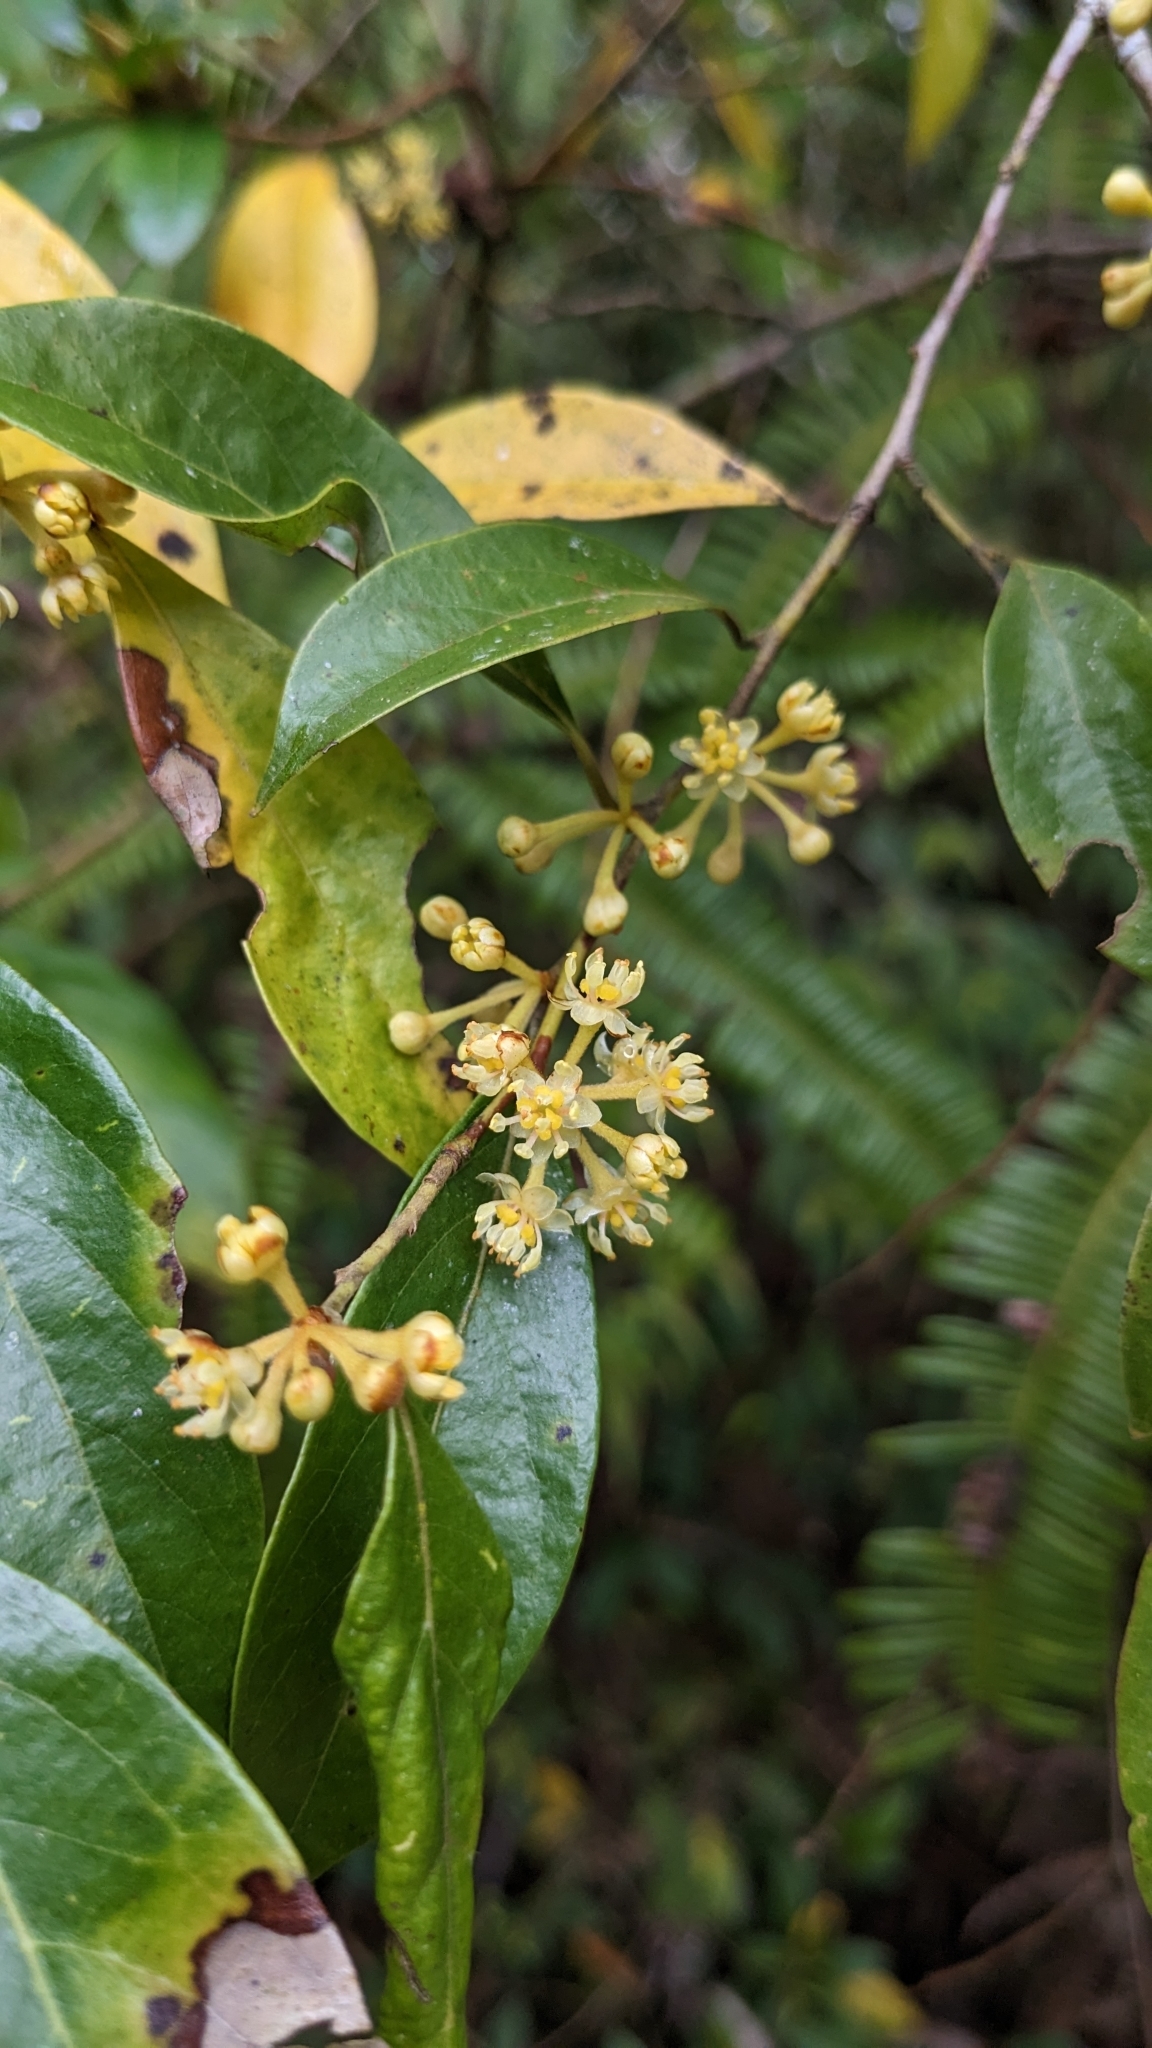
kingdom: Plantae
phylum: Tracheophyta
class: Magnoliopsida
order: Laurales
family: Lauraceae
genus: Lindera
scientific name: Lindera communis
